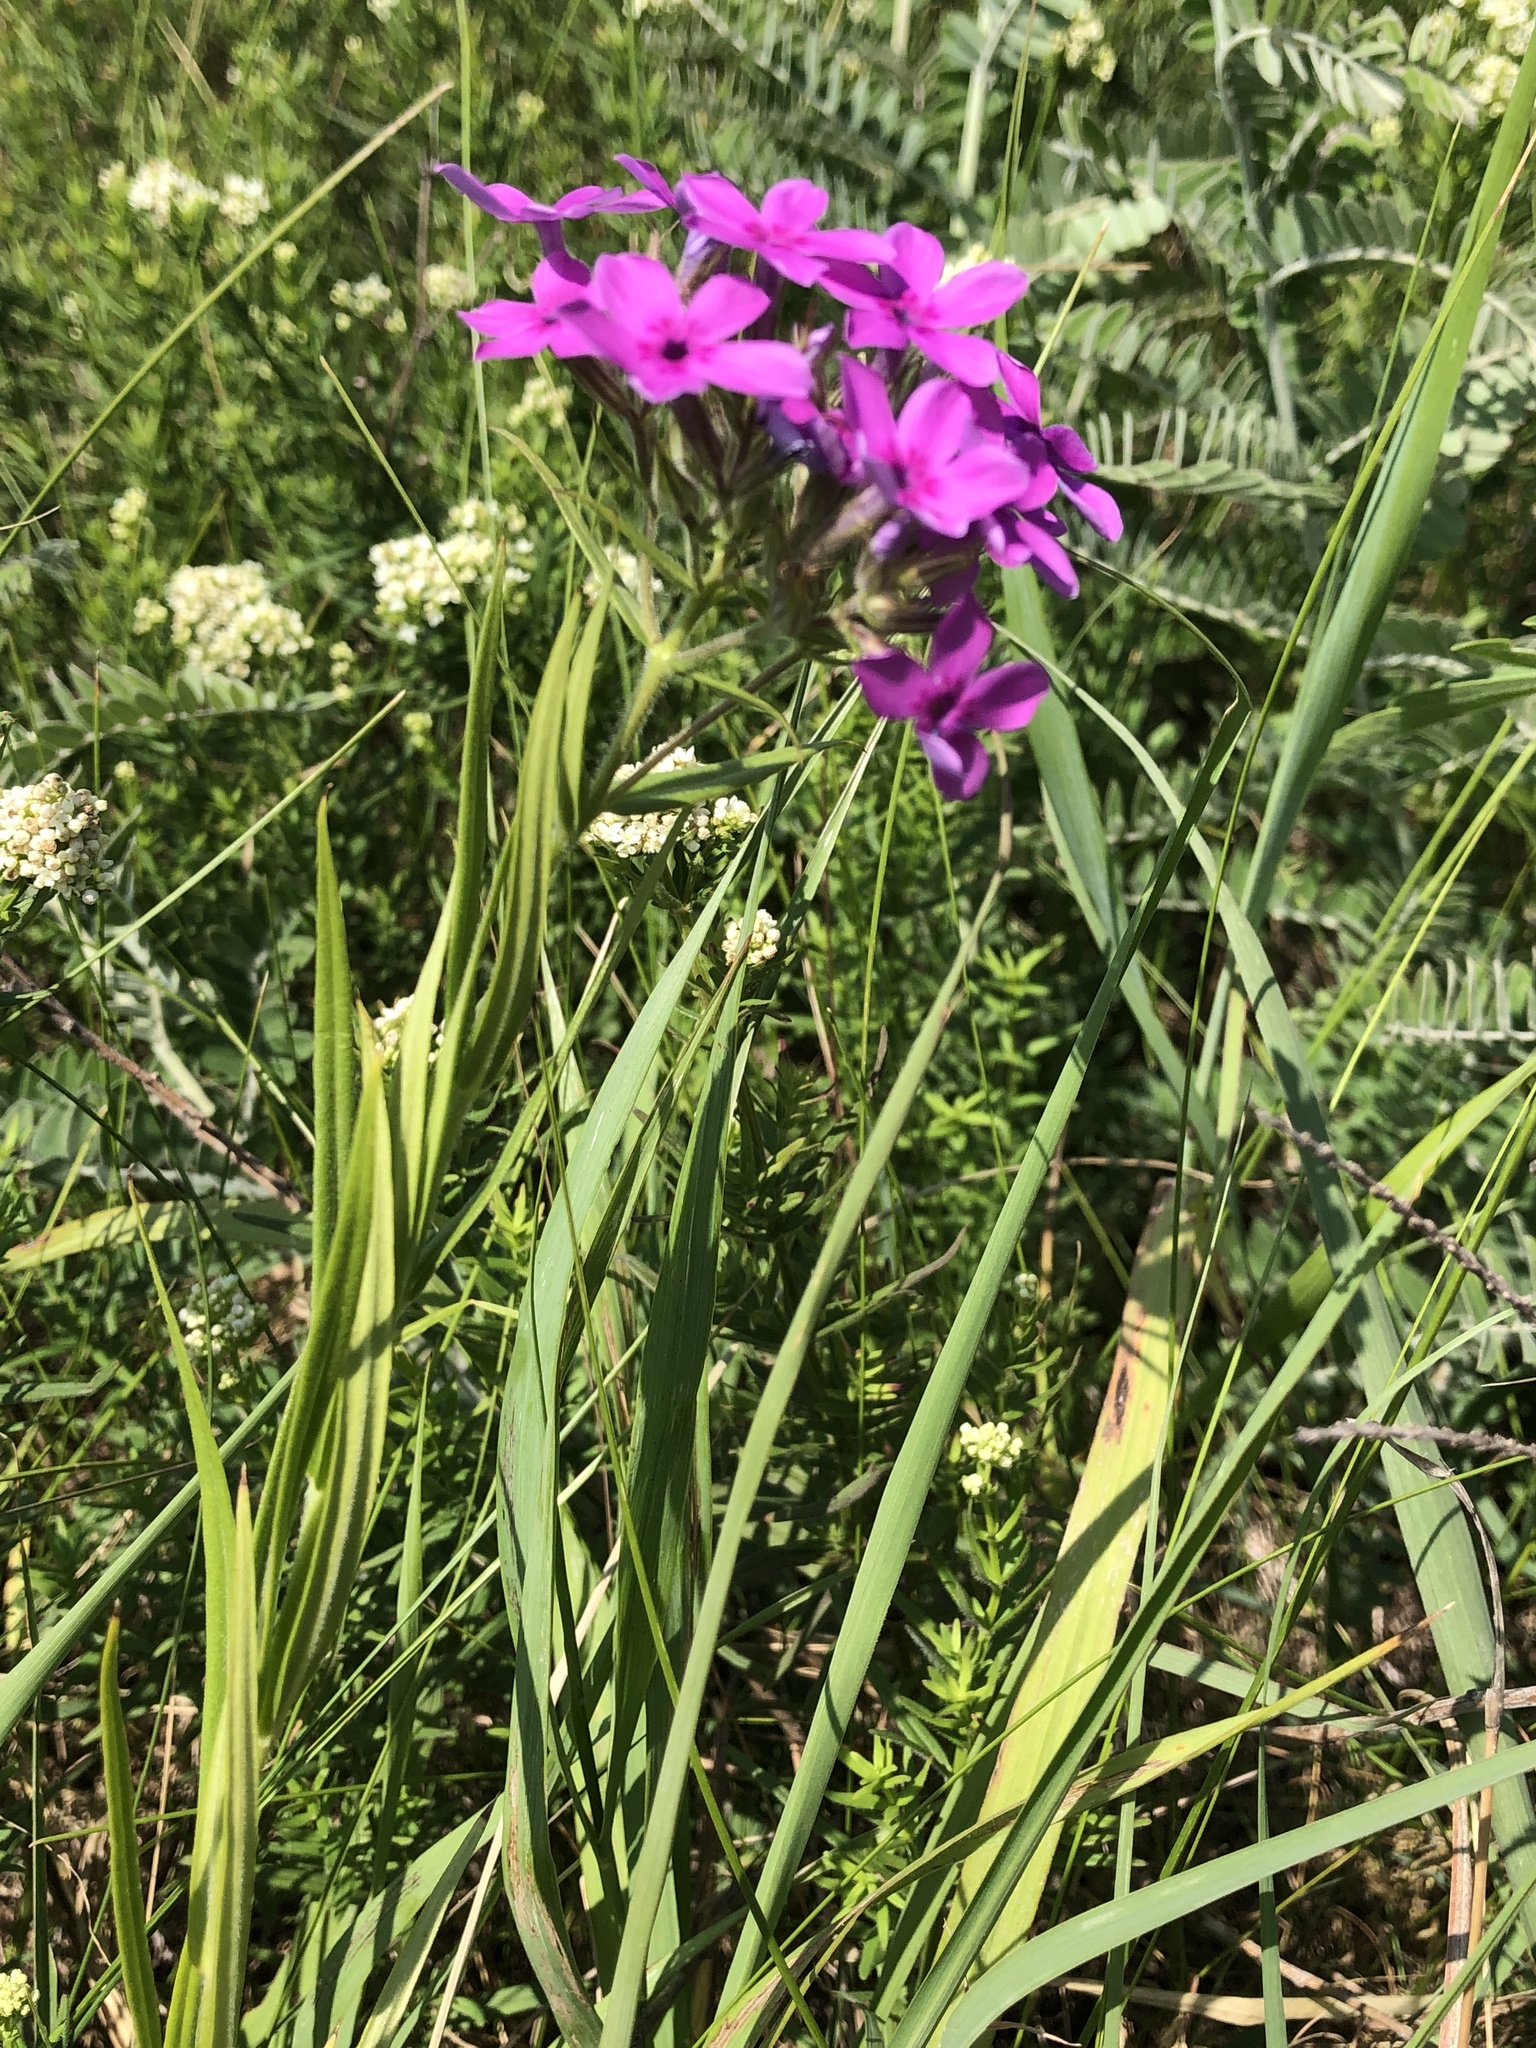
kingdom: Plantae
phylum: Tracheophyta
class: Magnoliopsida
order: Ericales
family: Polemoniaceae
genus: Phlox
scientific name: Phlox pilosa
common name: Prairie phlox
